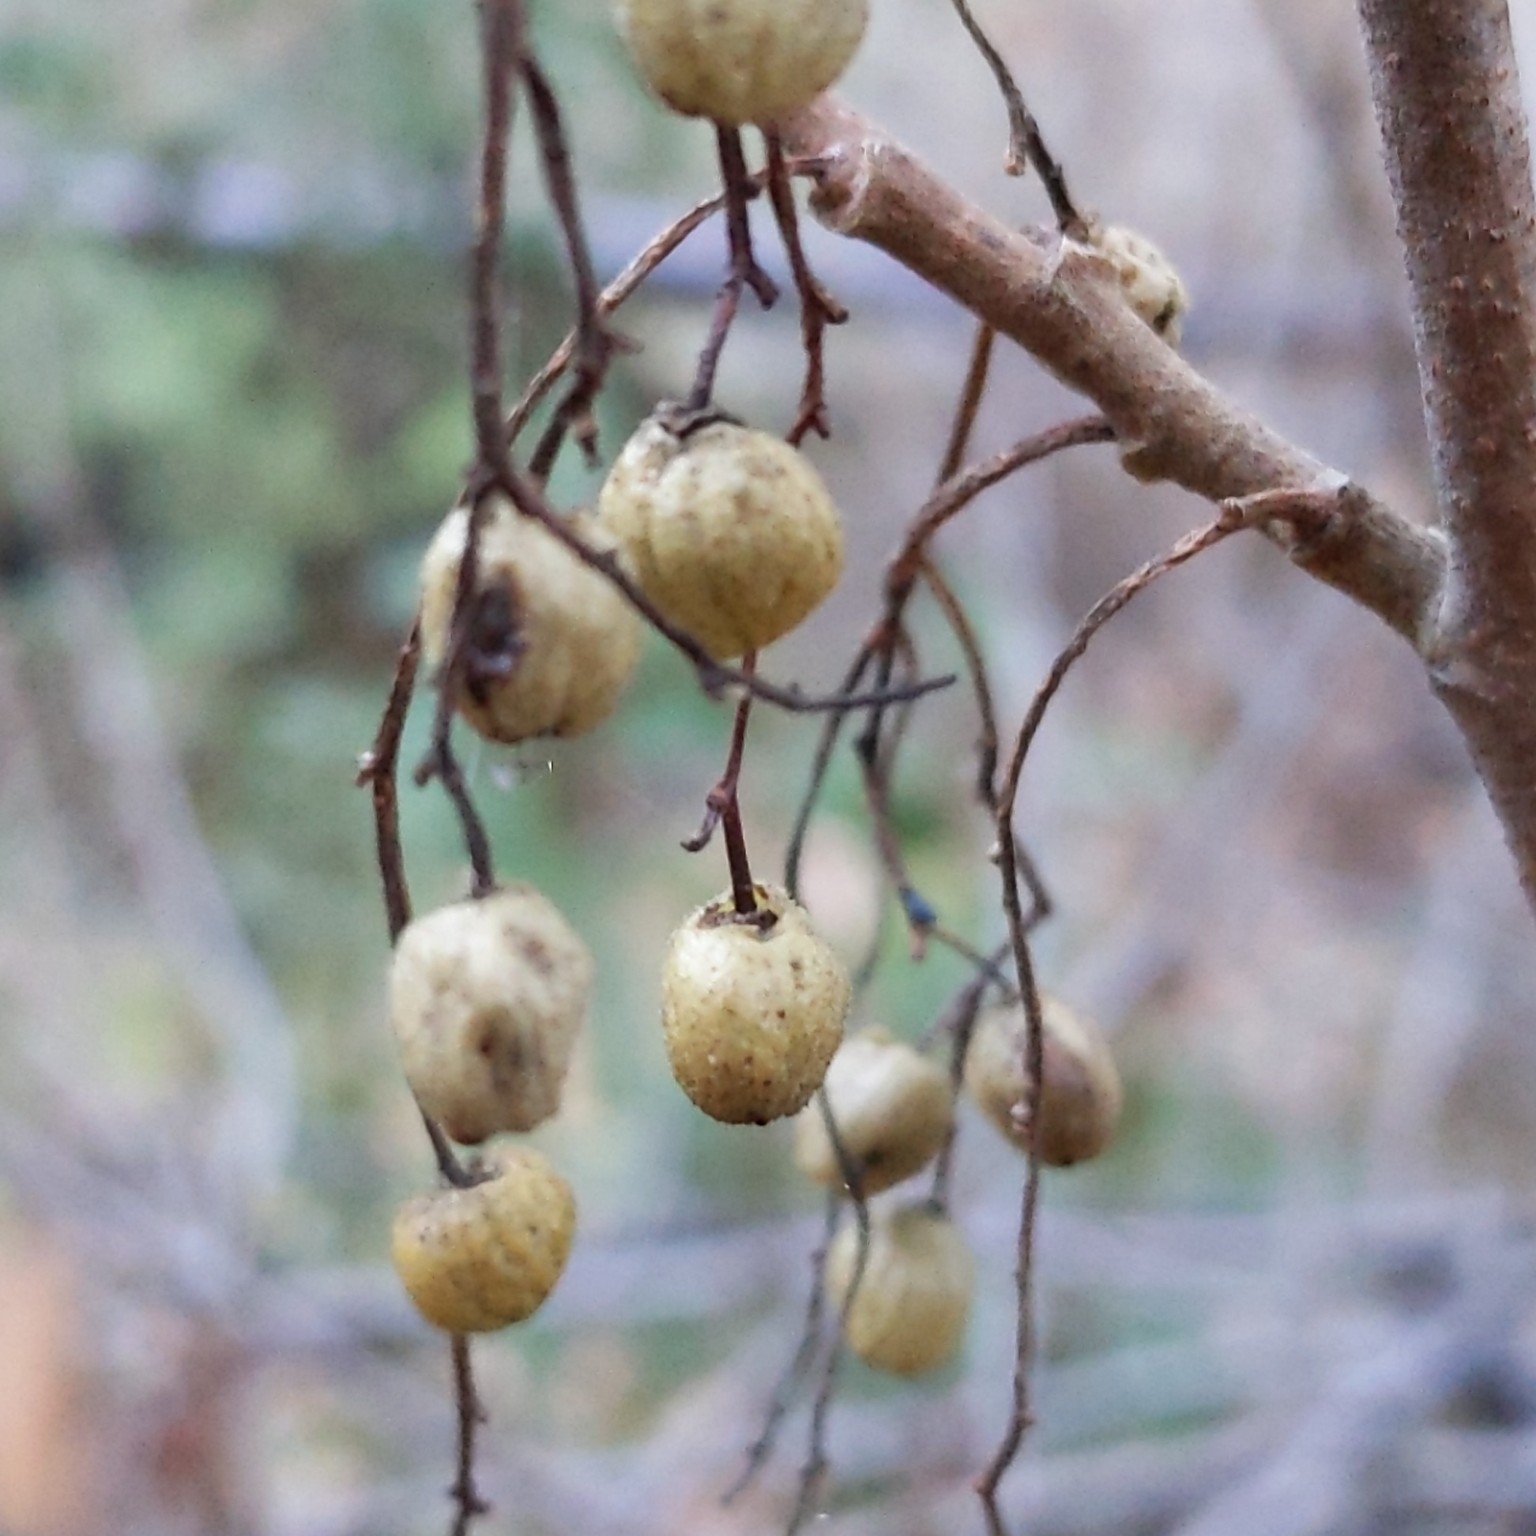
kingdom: Plantae
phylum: Tracheophyta
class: Magnoliopsida
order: Sapindales
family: Anacardiaceae
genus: Toxicodendron
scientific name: Toxicodendron diversilobum
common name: Pacific poison-oak
